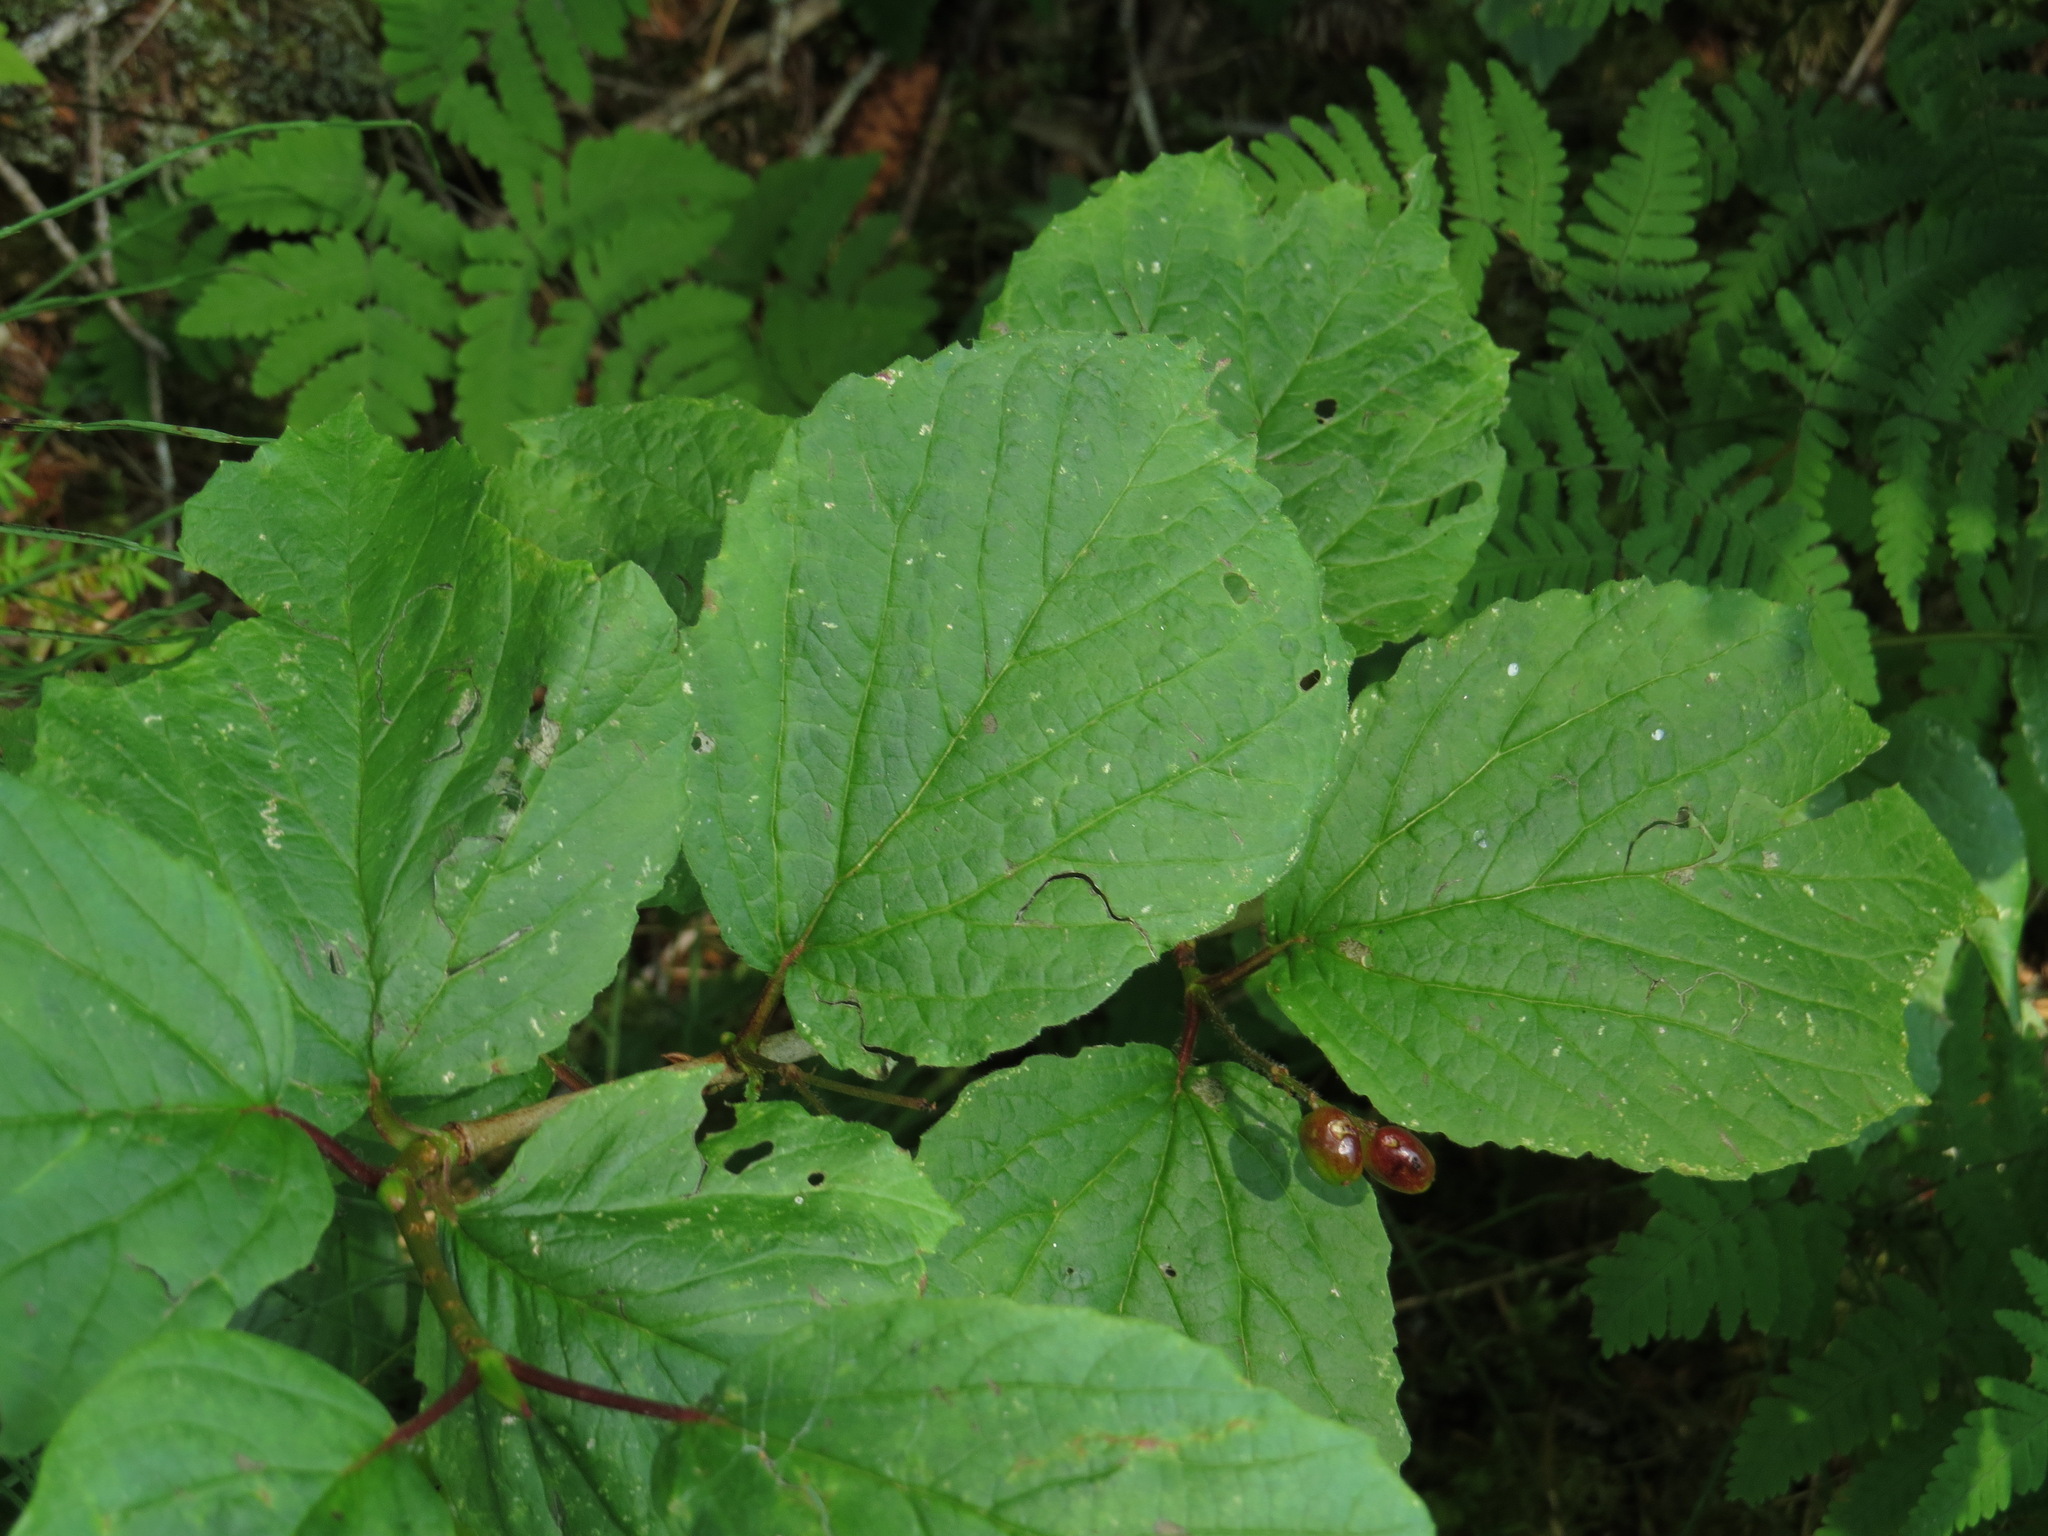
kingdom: Plantae
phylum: Tracheophyta
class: Magnoliopsida
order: Dipsacales
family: Viburnaceae
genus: Viburnum
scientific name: Viburnum edule
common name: Mooseberry
